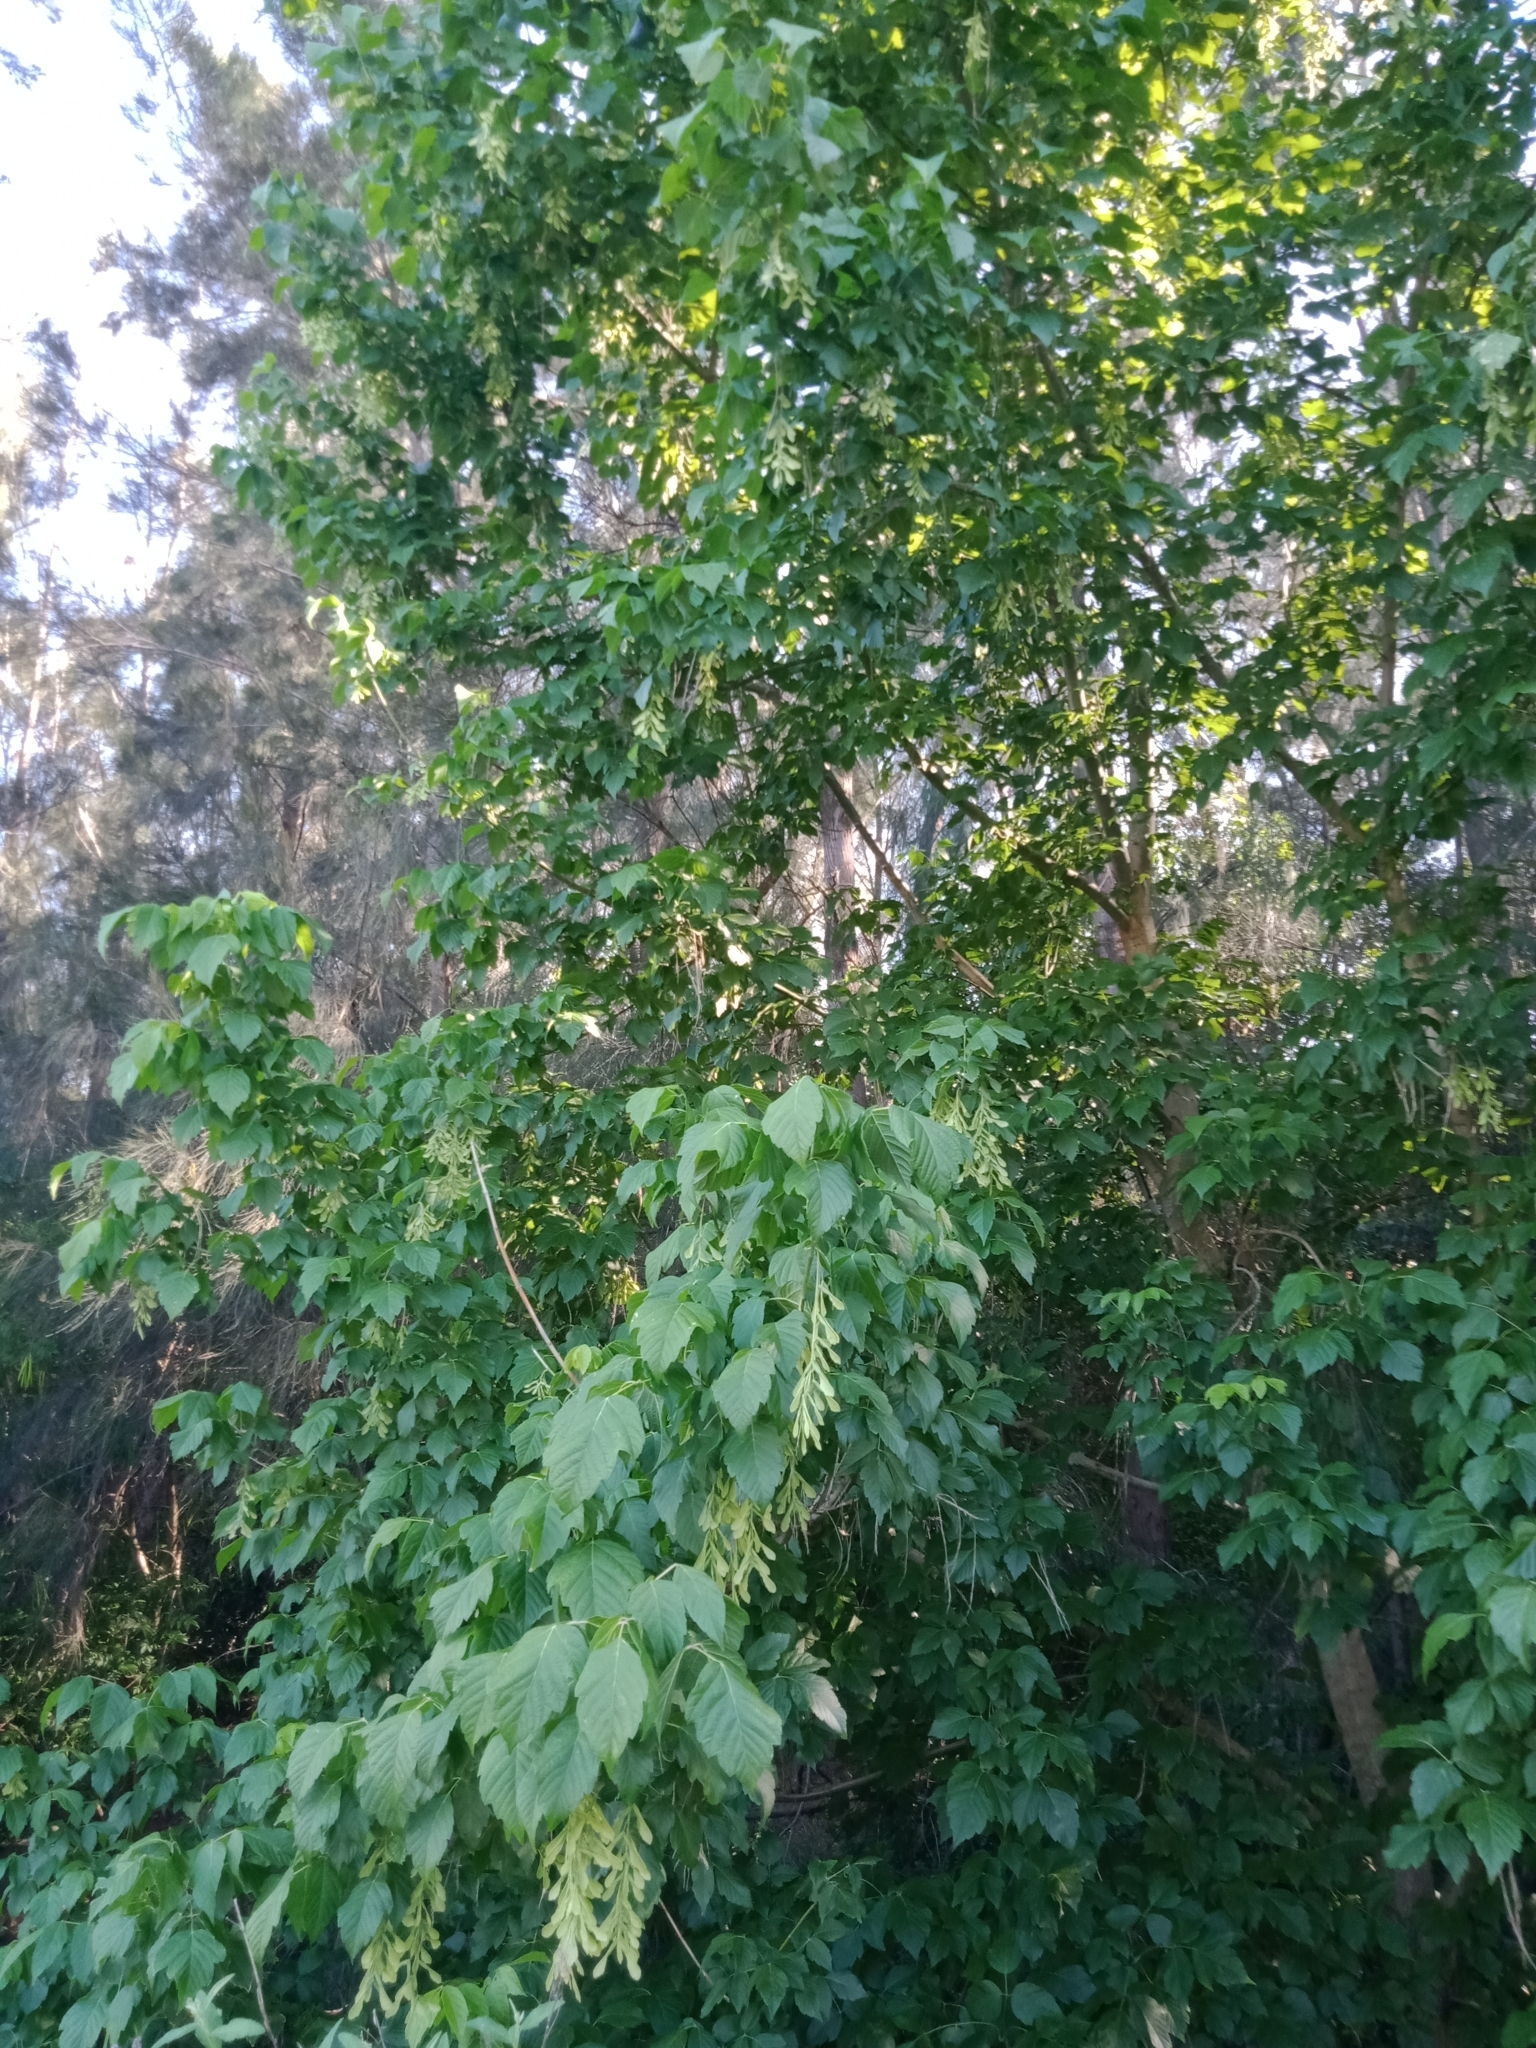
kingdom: Plantae
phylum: Tracheophyta
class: Magnoliopsida
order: Sapindales
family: Sapindaceae
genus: Acer
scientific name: Acer negundo
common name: Ashleaf maple
